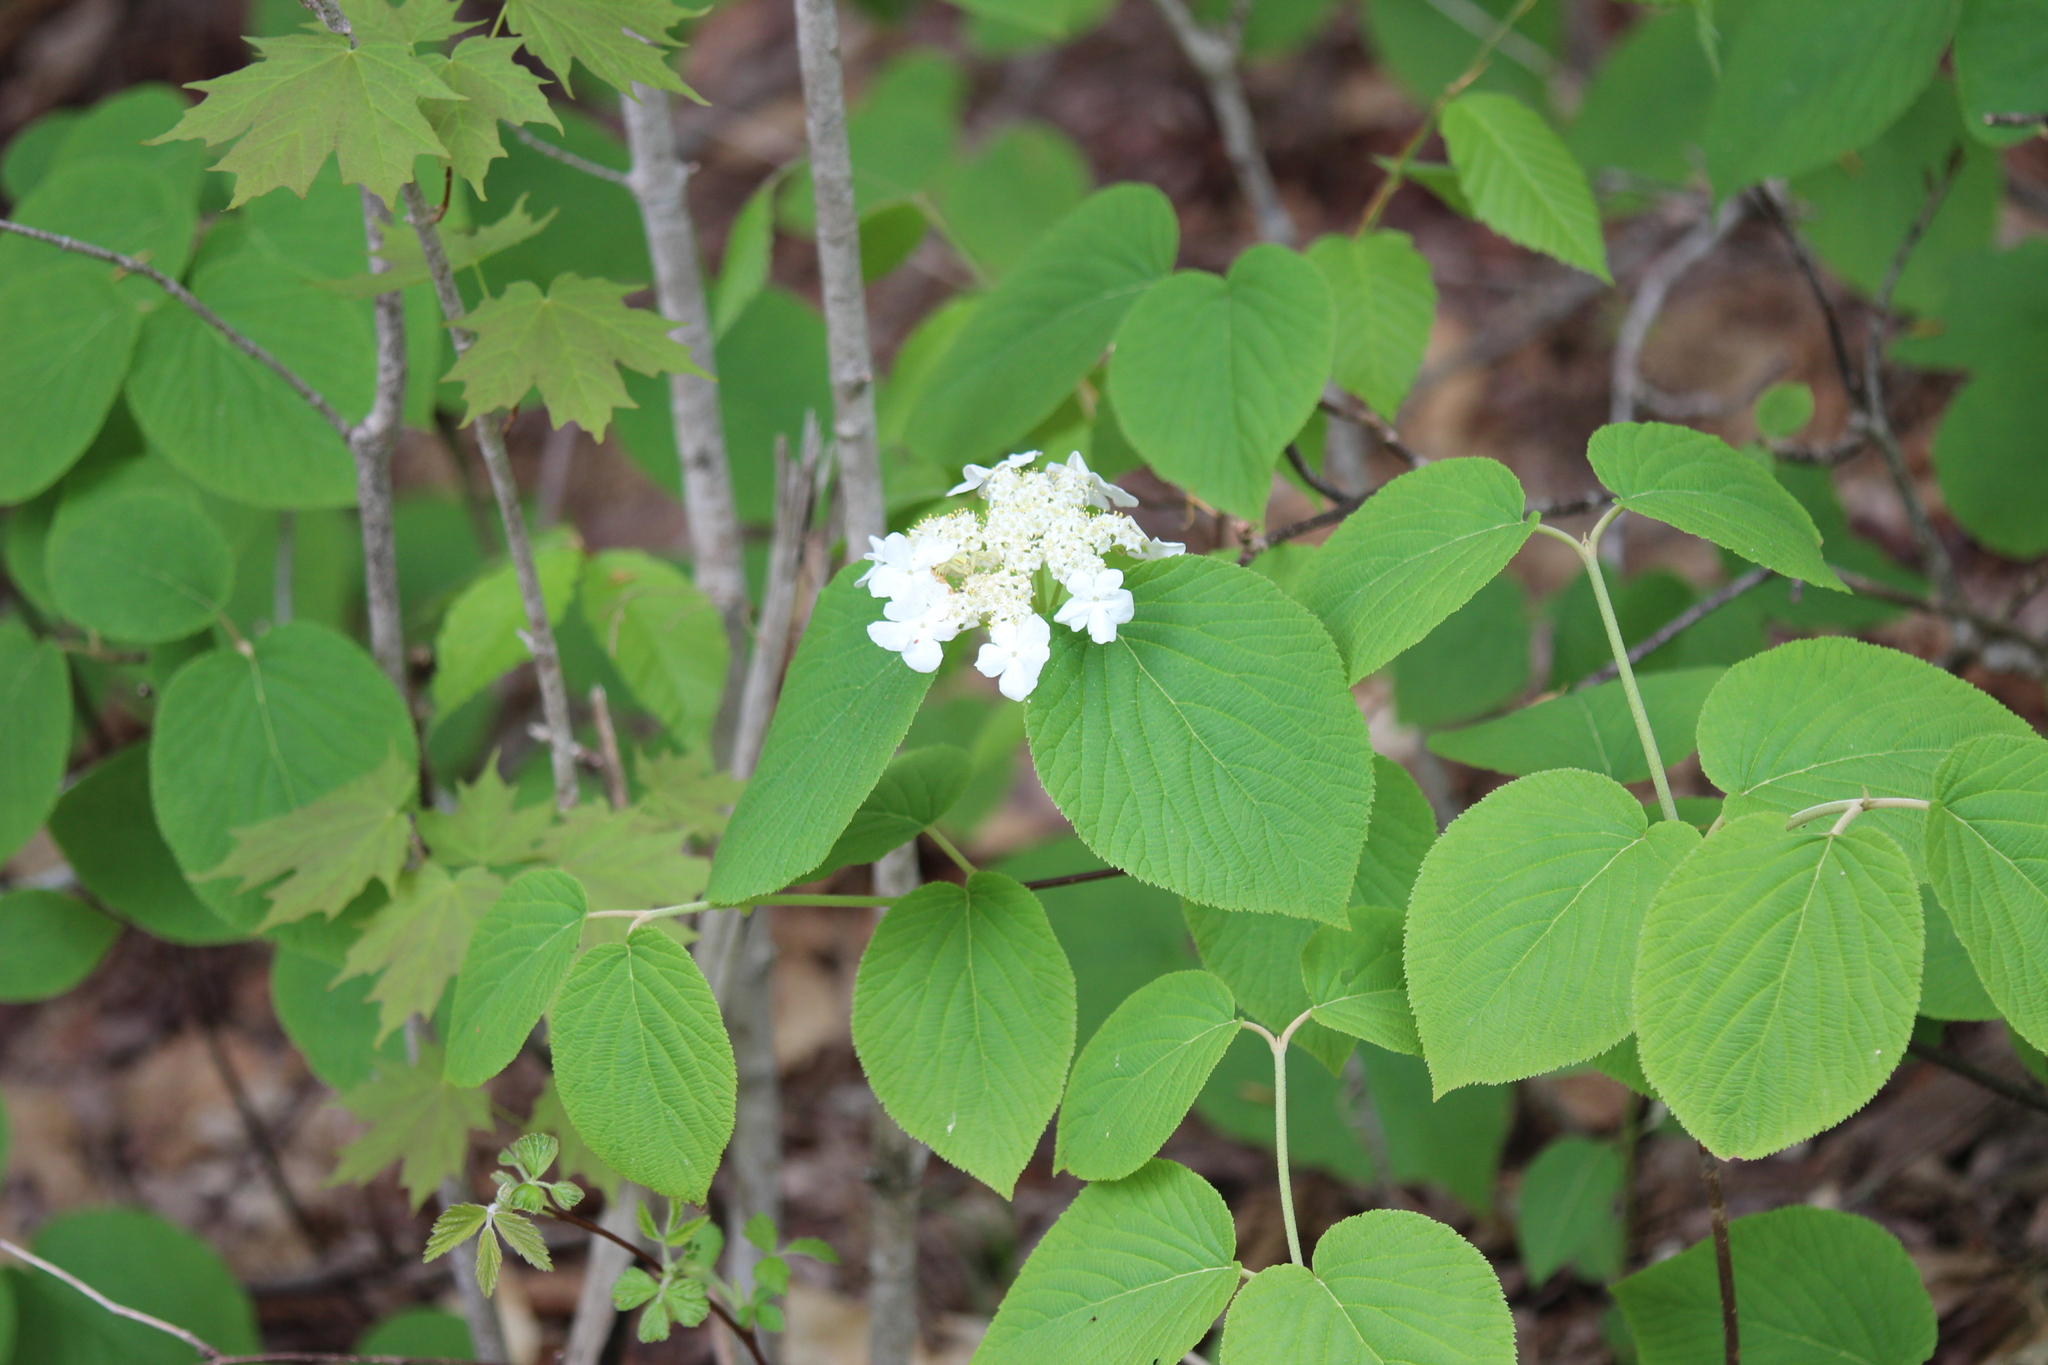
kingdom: Plantae
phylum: Tracheophyta
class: Magnoliopsida
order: Dipsacales
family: Viburnaceae
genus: Viburnum
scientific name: Viburnum lantanoides
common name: Hobblebush
